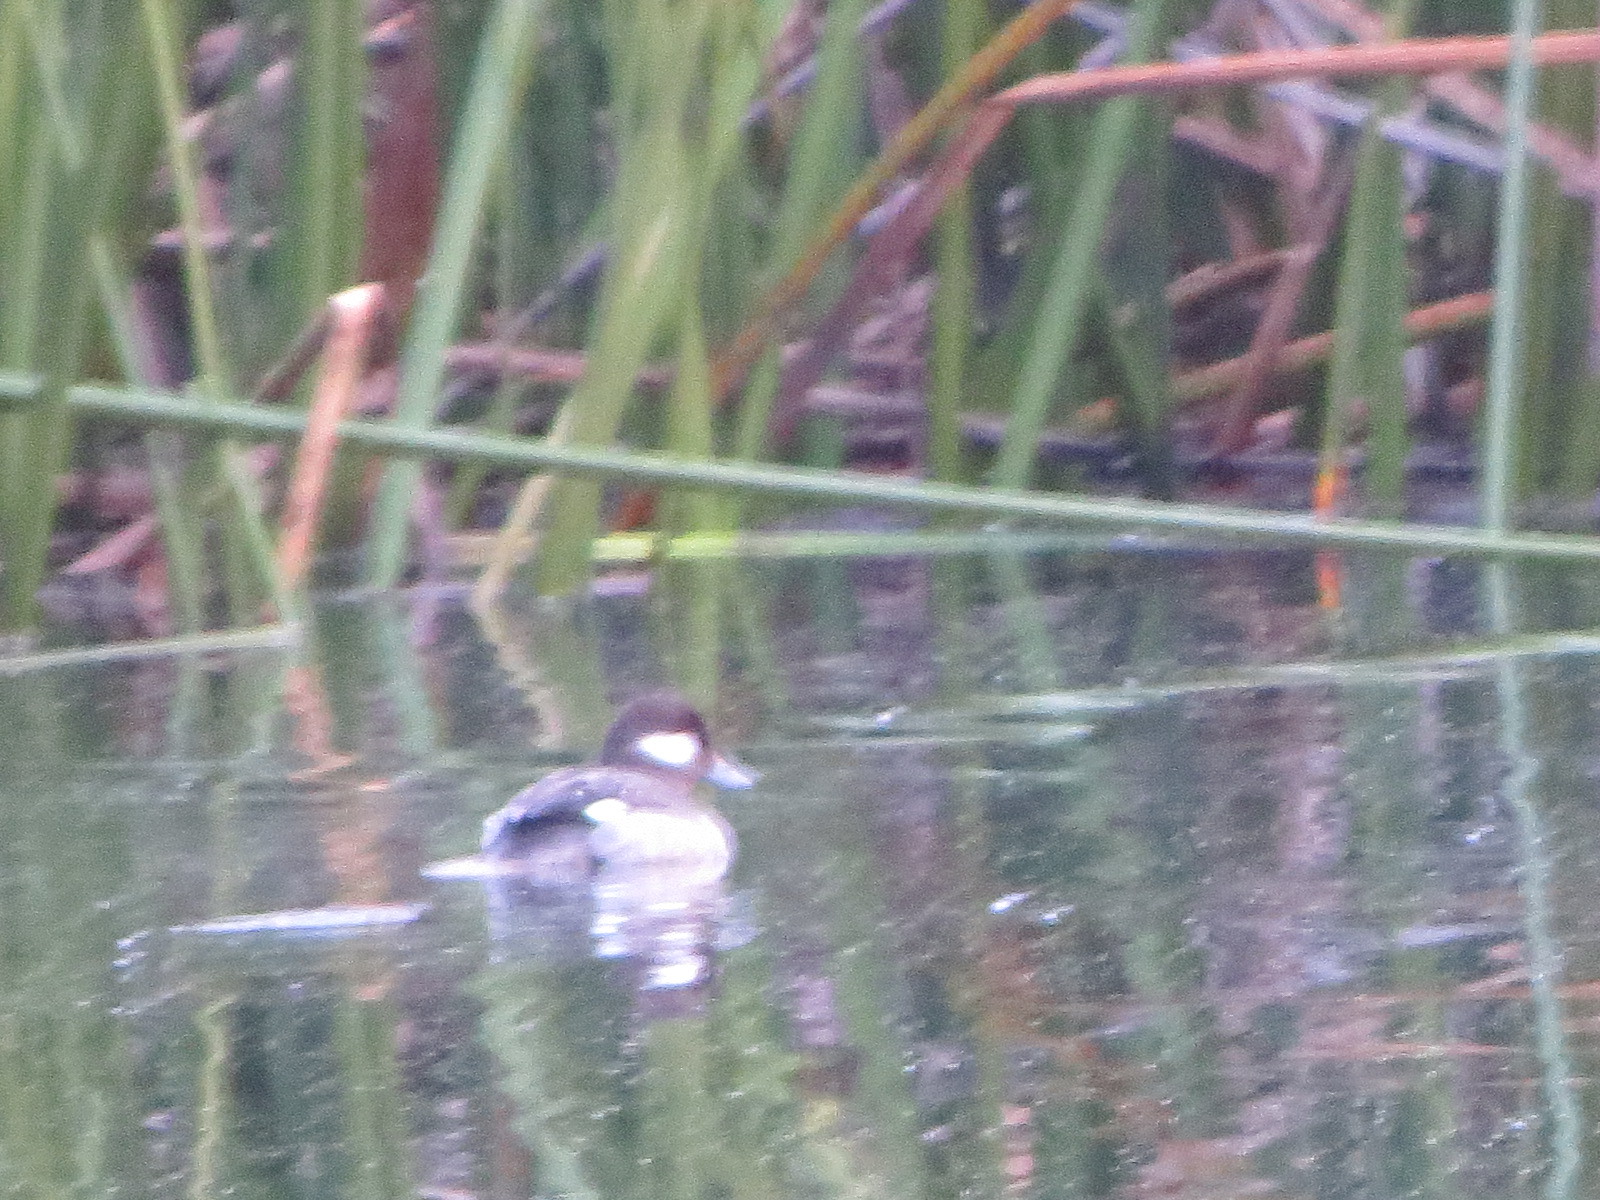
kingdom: Animalia
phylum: Chordata
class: Aves
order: Anseriformes
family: Anatidae
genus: Bucephala
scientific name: Bucephala albeola
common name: Bufflehead
